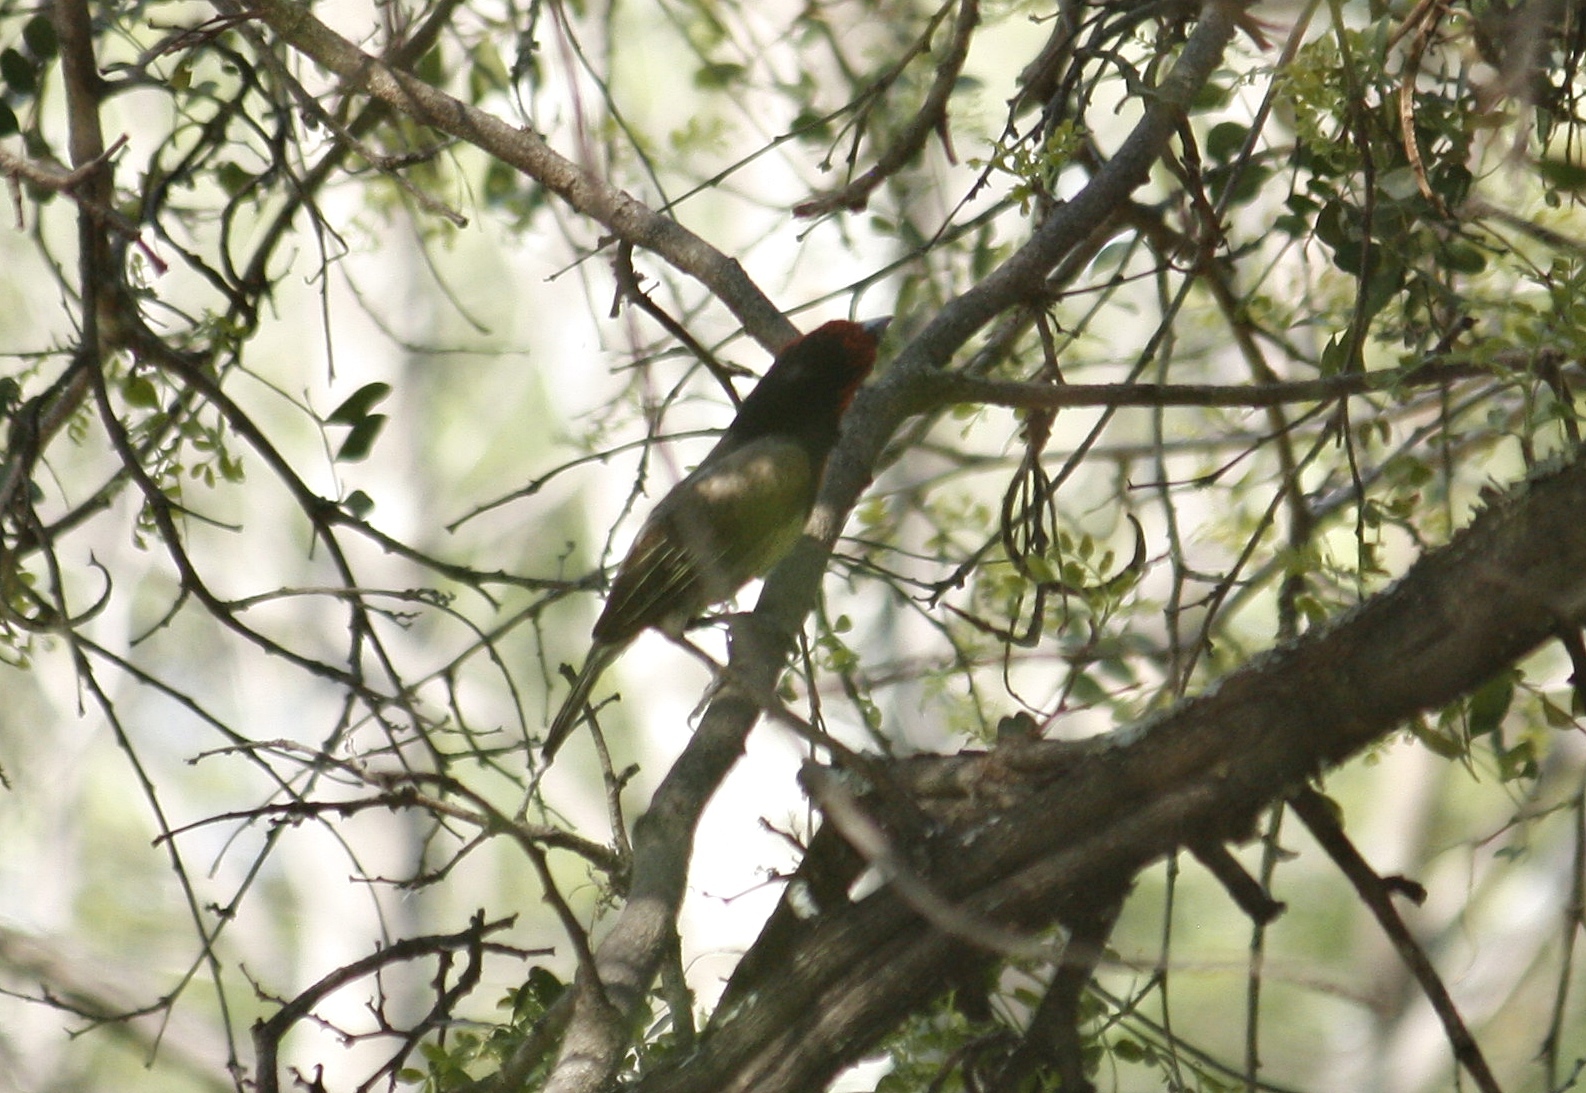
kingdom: Animalia
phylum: Chordata
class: Aves
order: Piciformes
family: Lybiidae
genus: Lybius
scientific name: Lybius torquatus
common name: Black-collared barbet
